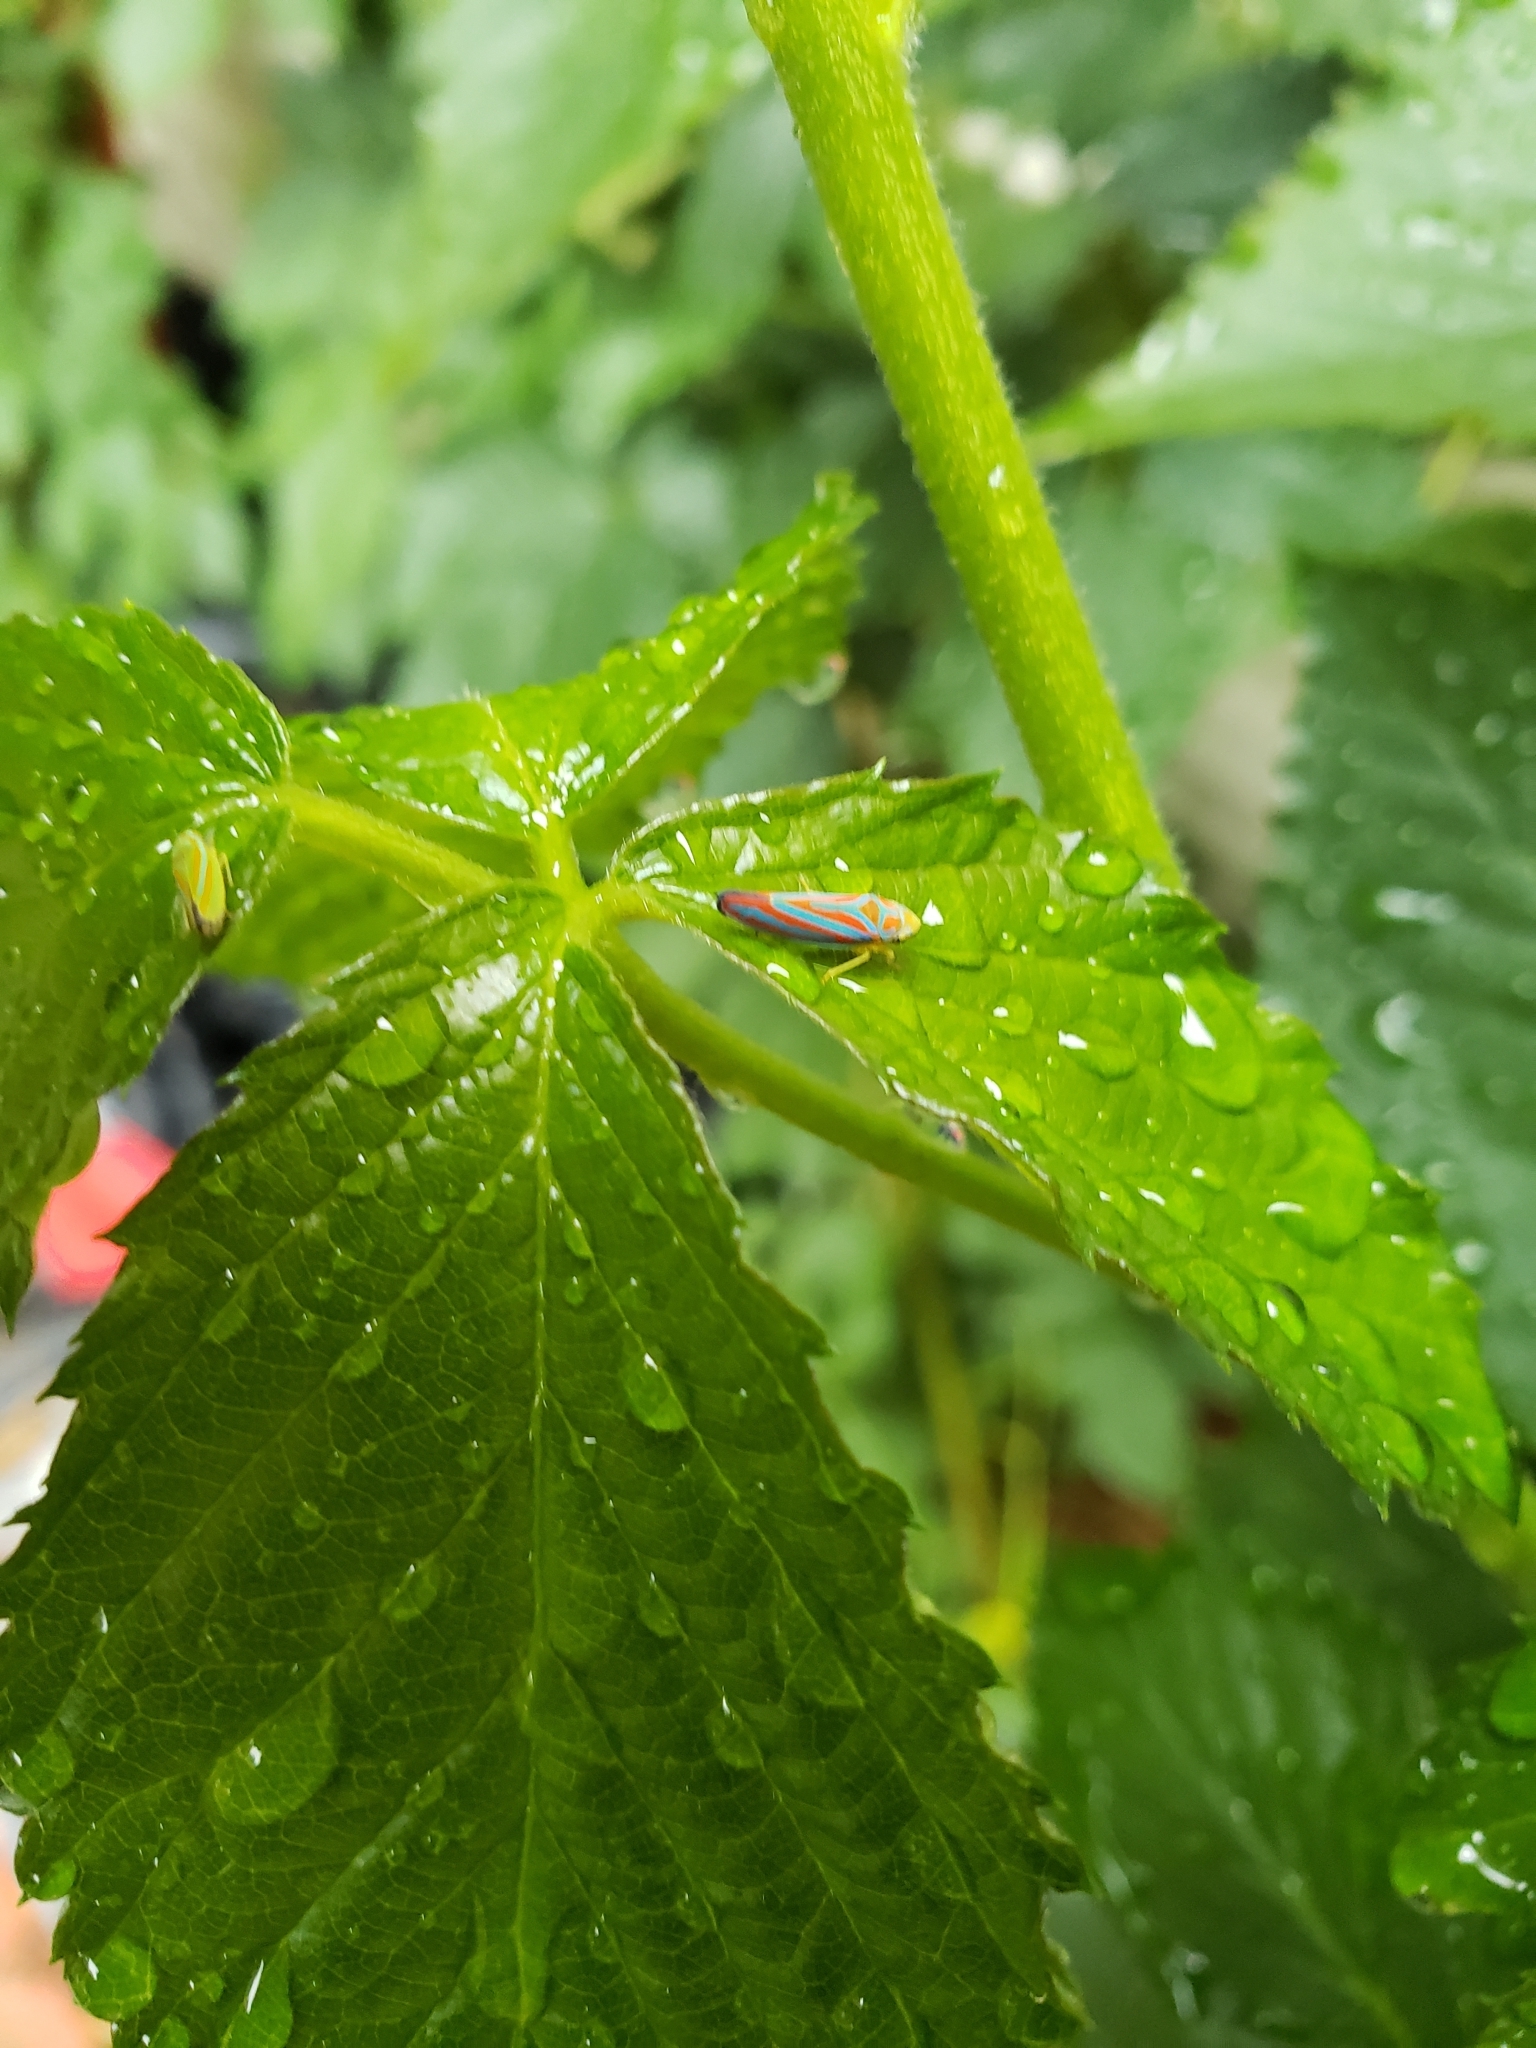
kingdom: Animalia
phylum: Arthropoda
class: Insecta
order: Hemiptera
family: Cicadellidae
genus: Graphocephala
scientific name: Graphocephala coccinea
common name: Candy-striped leafhopper
